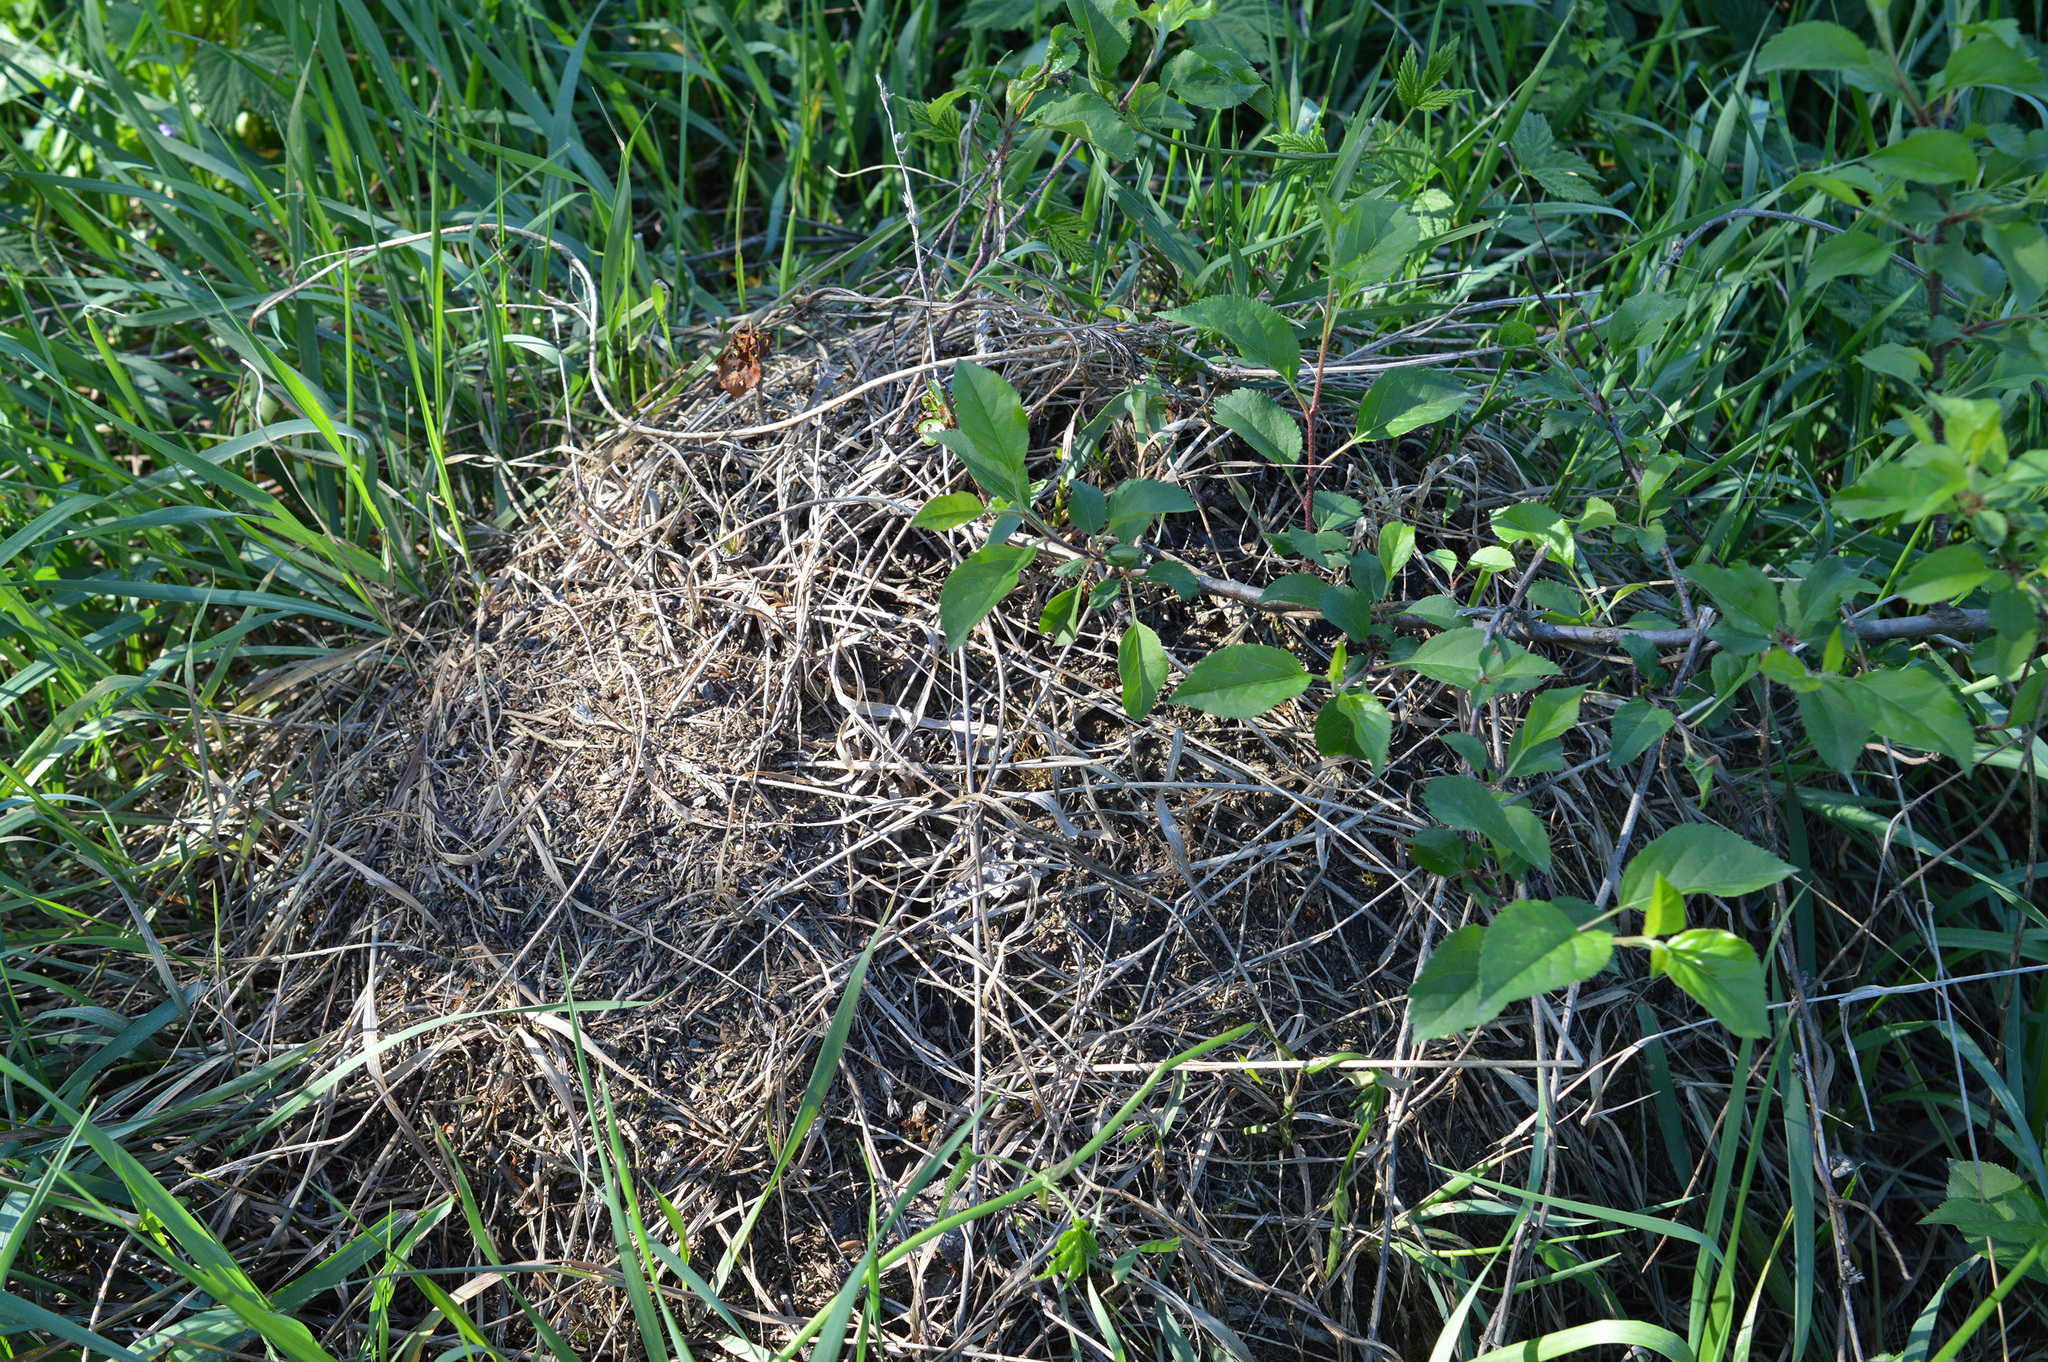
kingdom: Animalia
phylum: Arthropoda
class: Insecta
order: Hymenoptera
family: Formicidae
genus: Formica
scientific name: Formica sanguinea
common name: Blood-red ant
